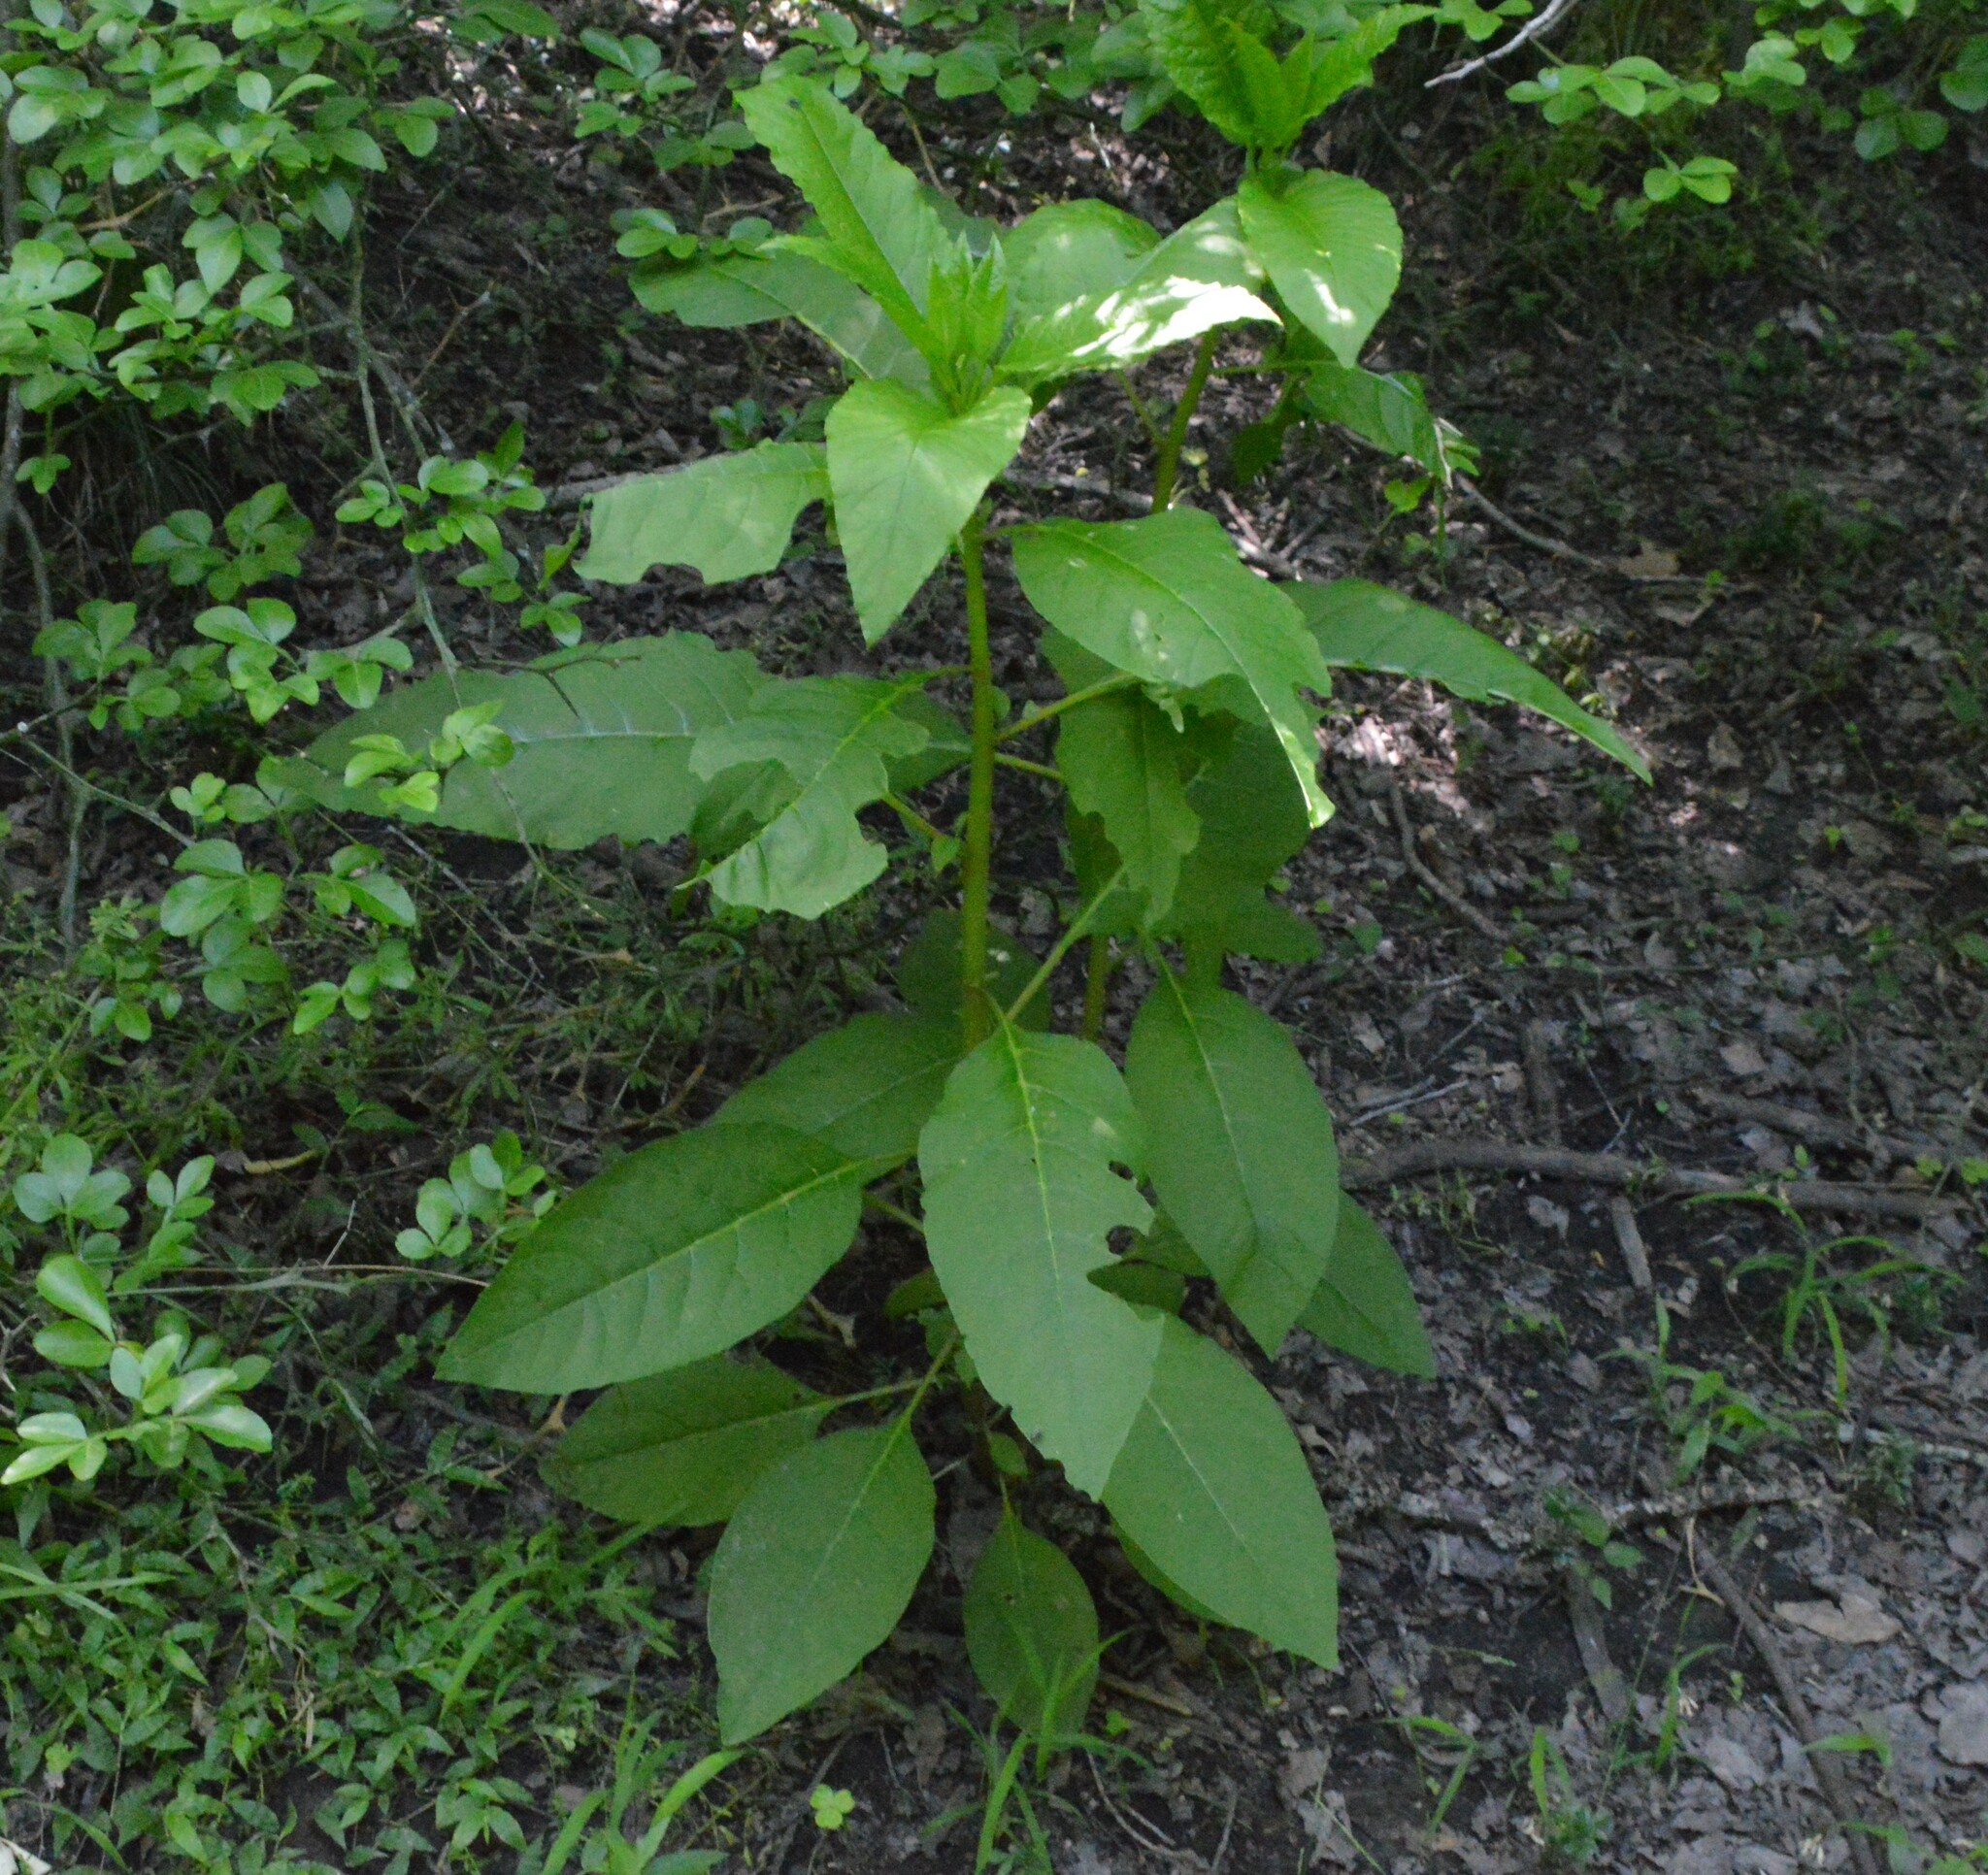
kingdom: Plantae
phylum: Tracheophyta
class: Magnoliopsida
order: Caryophyllales
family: Phytolaccaceae
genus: Phytolacca
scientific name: Phytolacca americana
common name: American pokeweed
